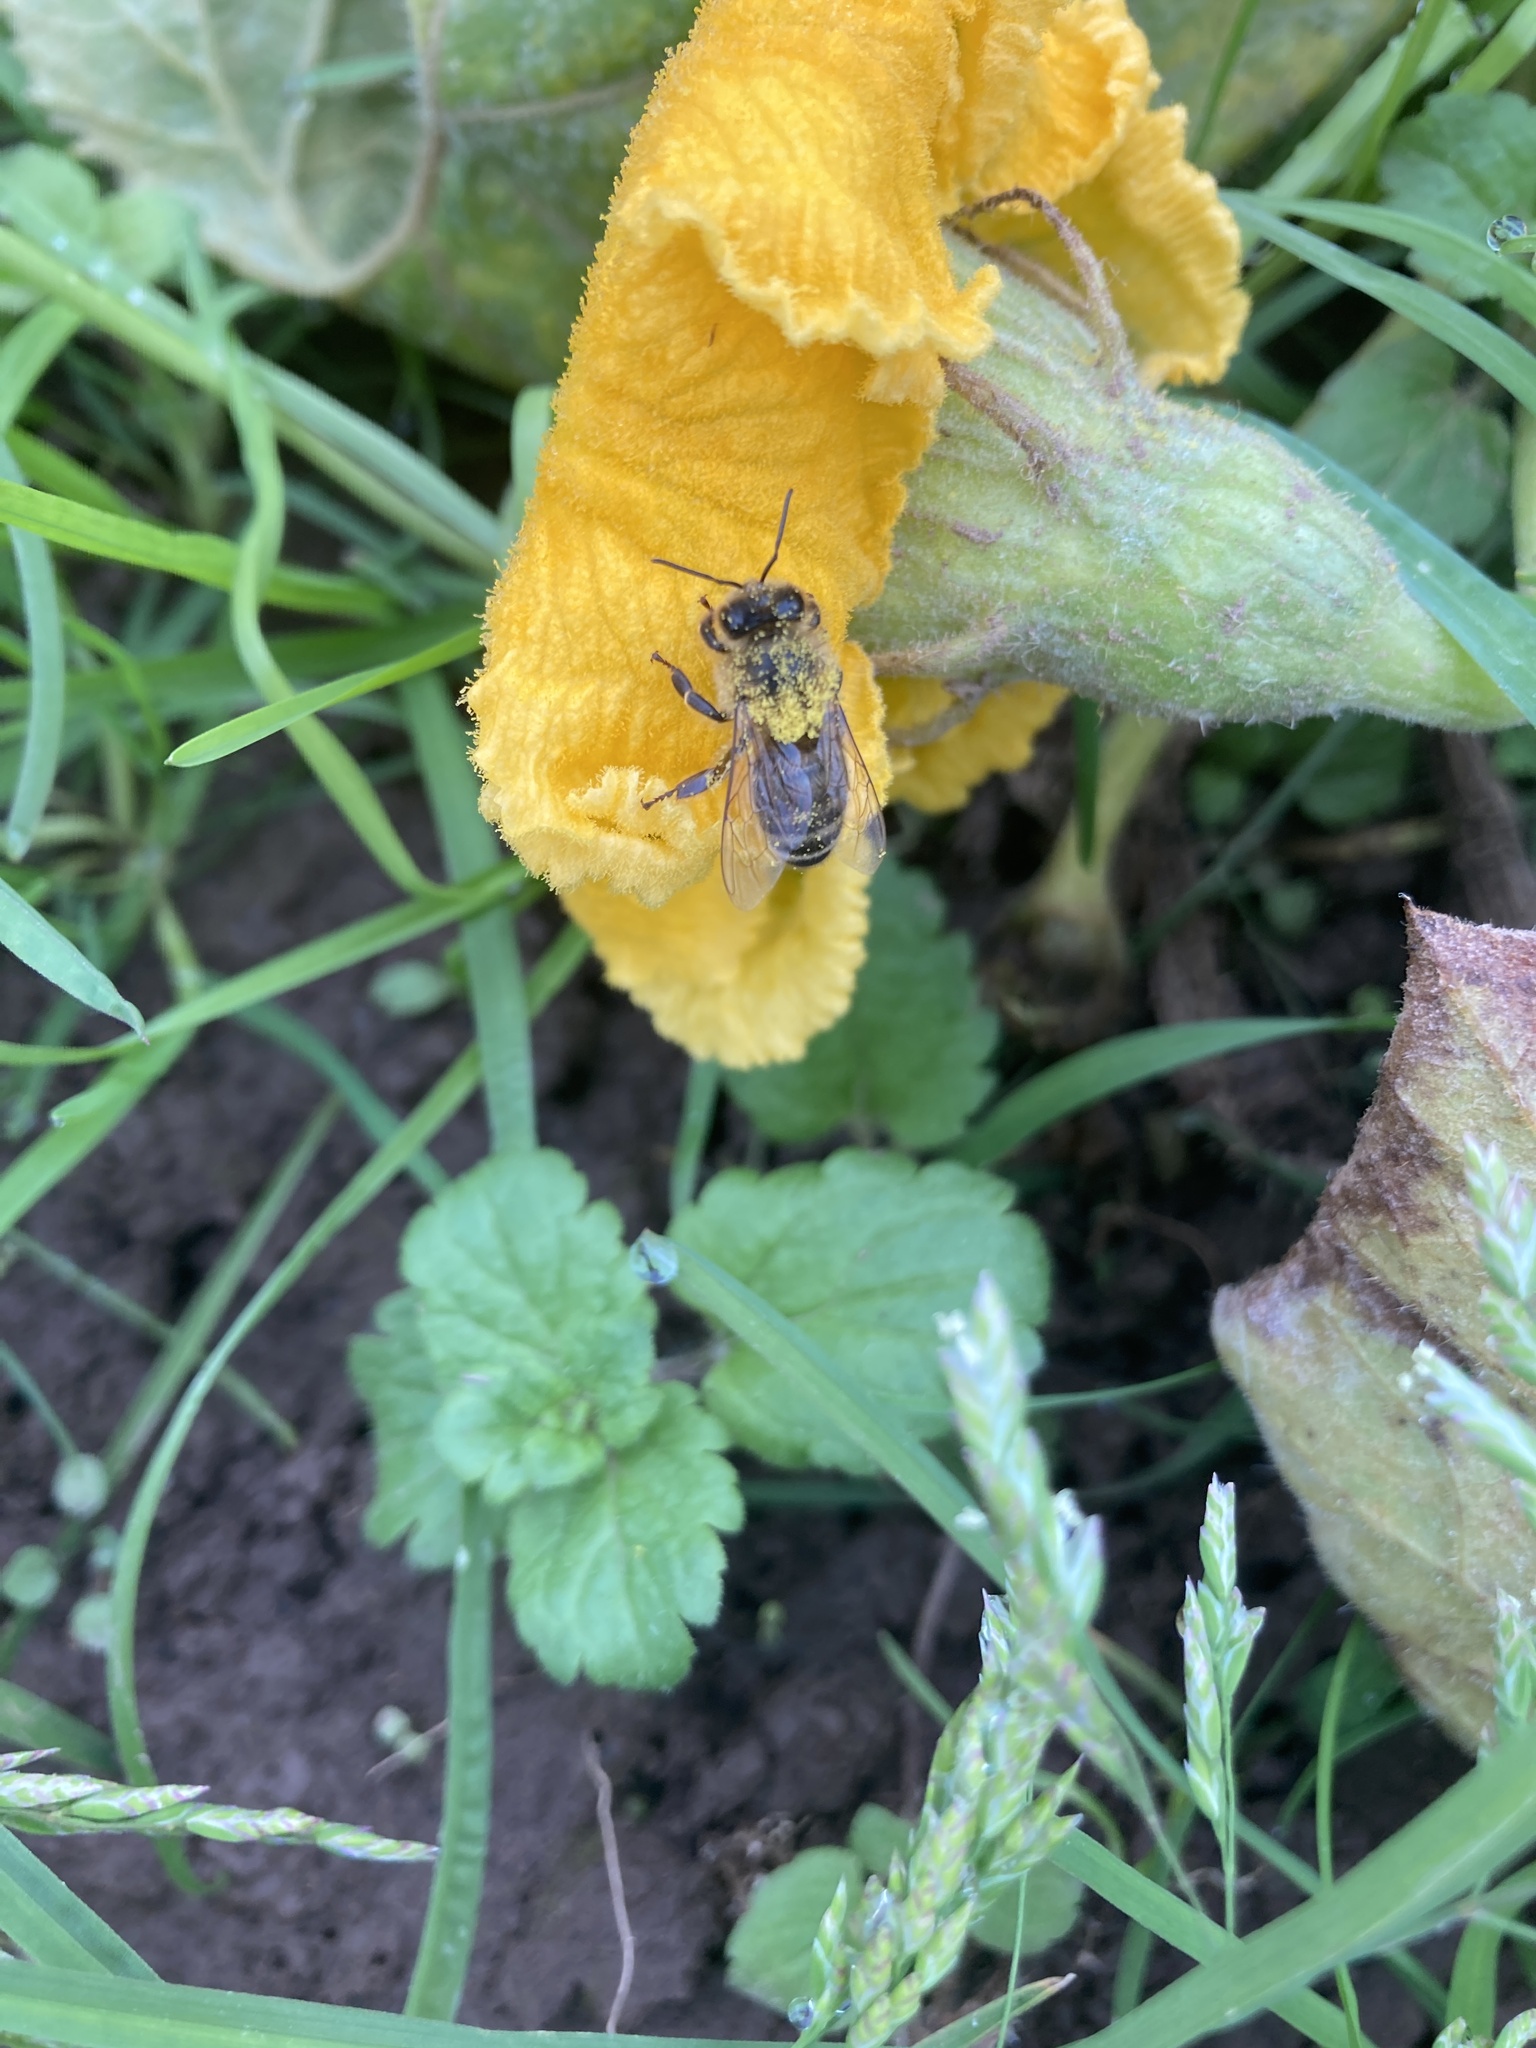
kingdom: Animalia
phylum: Arthropoda
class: Insecta
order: Hymenoptera
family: Apidae
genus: Apis
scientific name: Apis mellifera
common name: Honey bee
